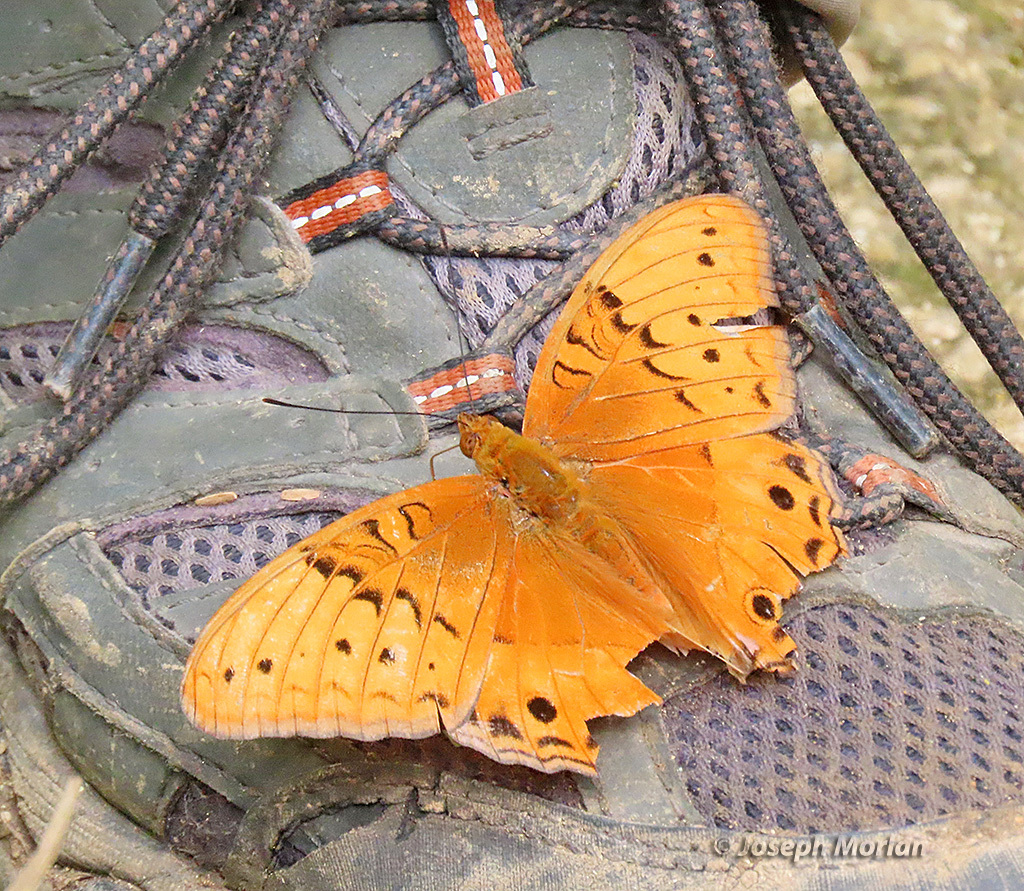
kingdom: Animalia
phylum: Arthropoda
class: Insecta
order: Lepidoptera
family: Nymphalidae
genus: Vindula
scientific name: Vindula arsinoe
